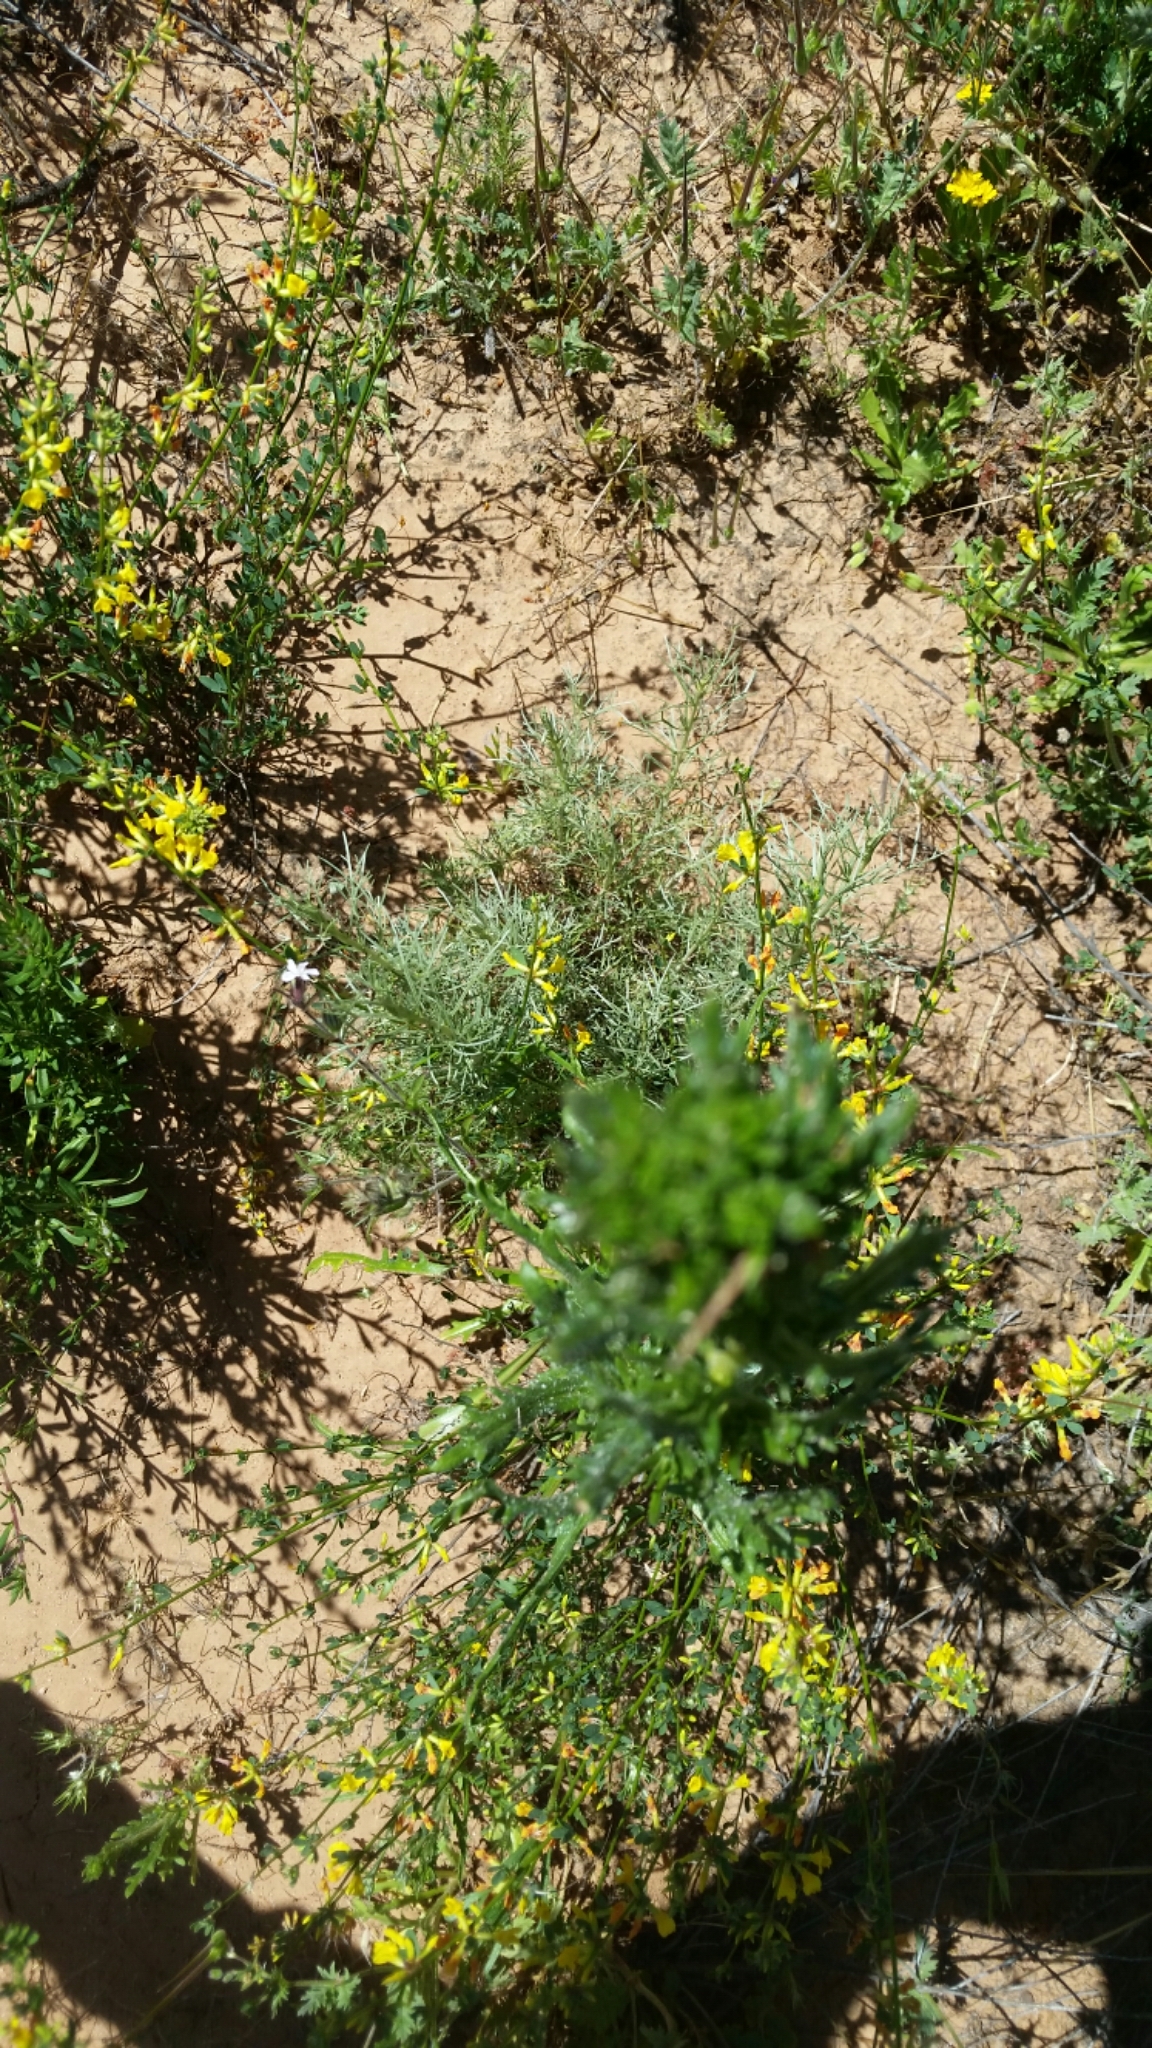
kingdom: Animalia
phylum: Arthropoda
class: Insecta
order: Coleoptera
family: Coccinellidae
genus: Hippodamia
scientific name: Hippodamia convergens
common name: Convergent lady beetle
